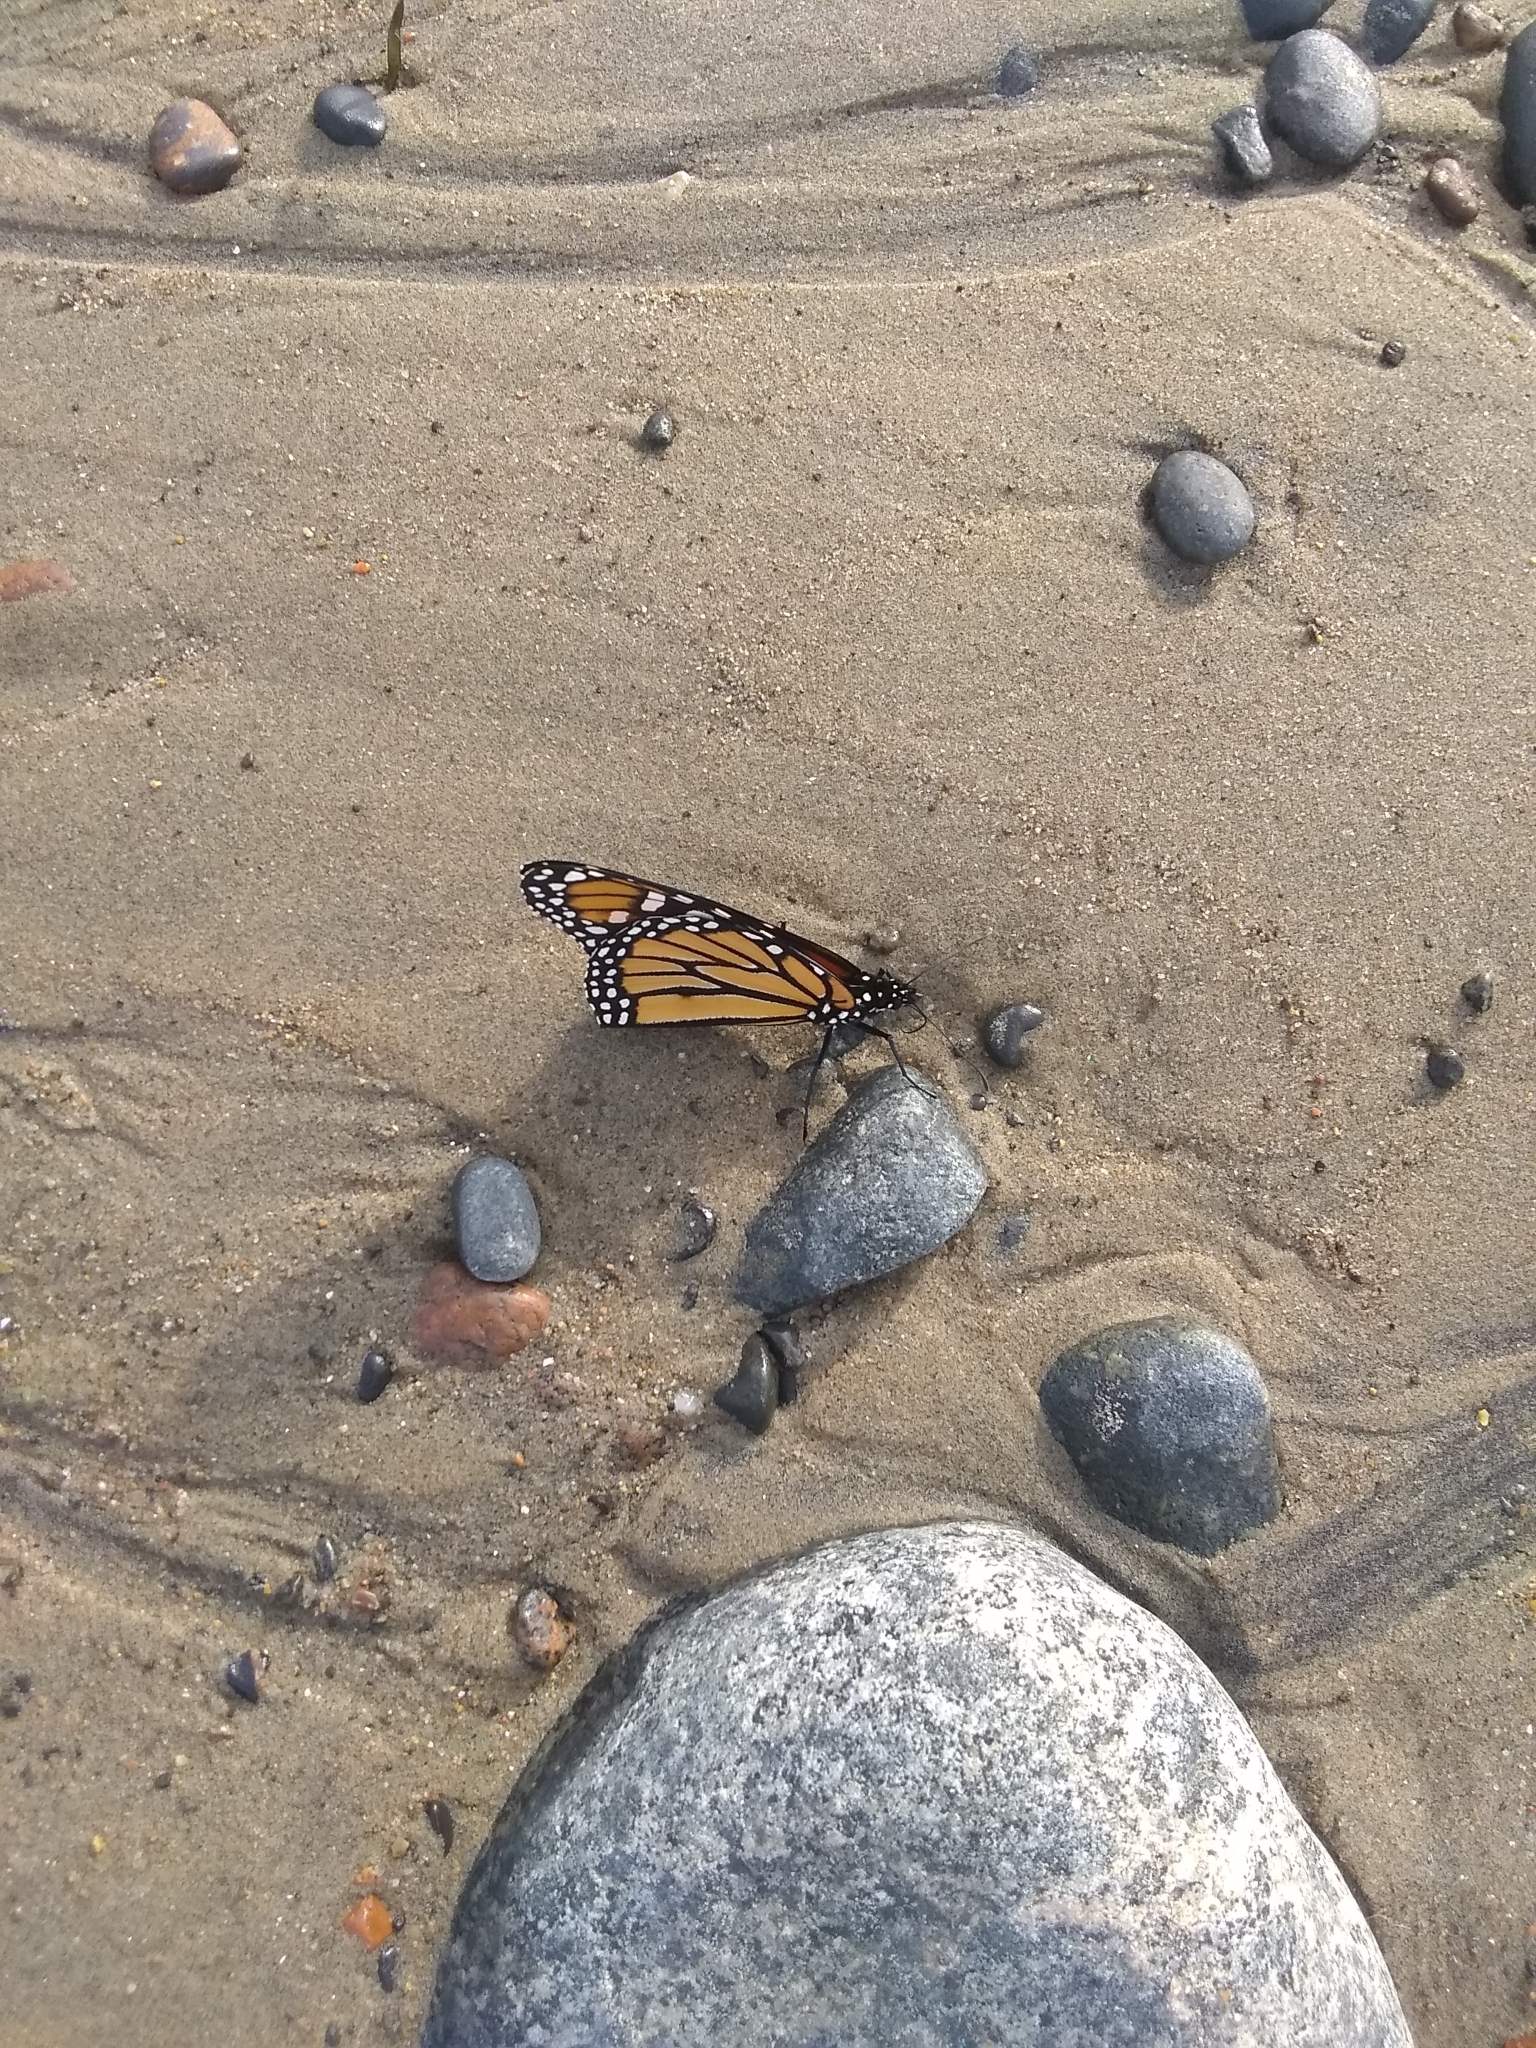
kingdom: Animalia
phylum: Arthropoda
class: Insecta
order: Lepidoptera
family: Nymphalidae
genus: Danaus
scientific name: Danaus plexippus
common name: Monarch
